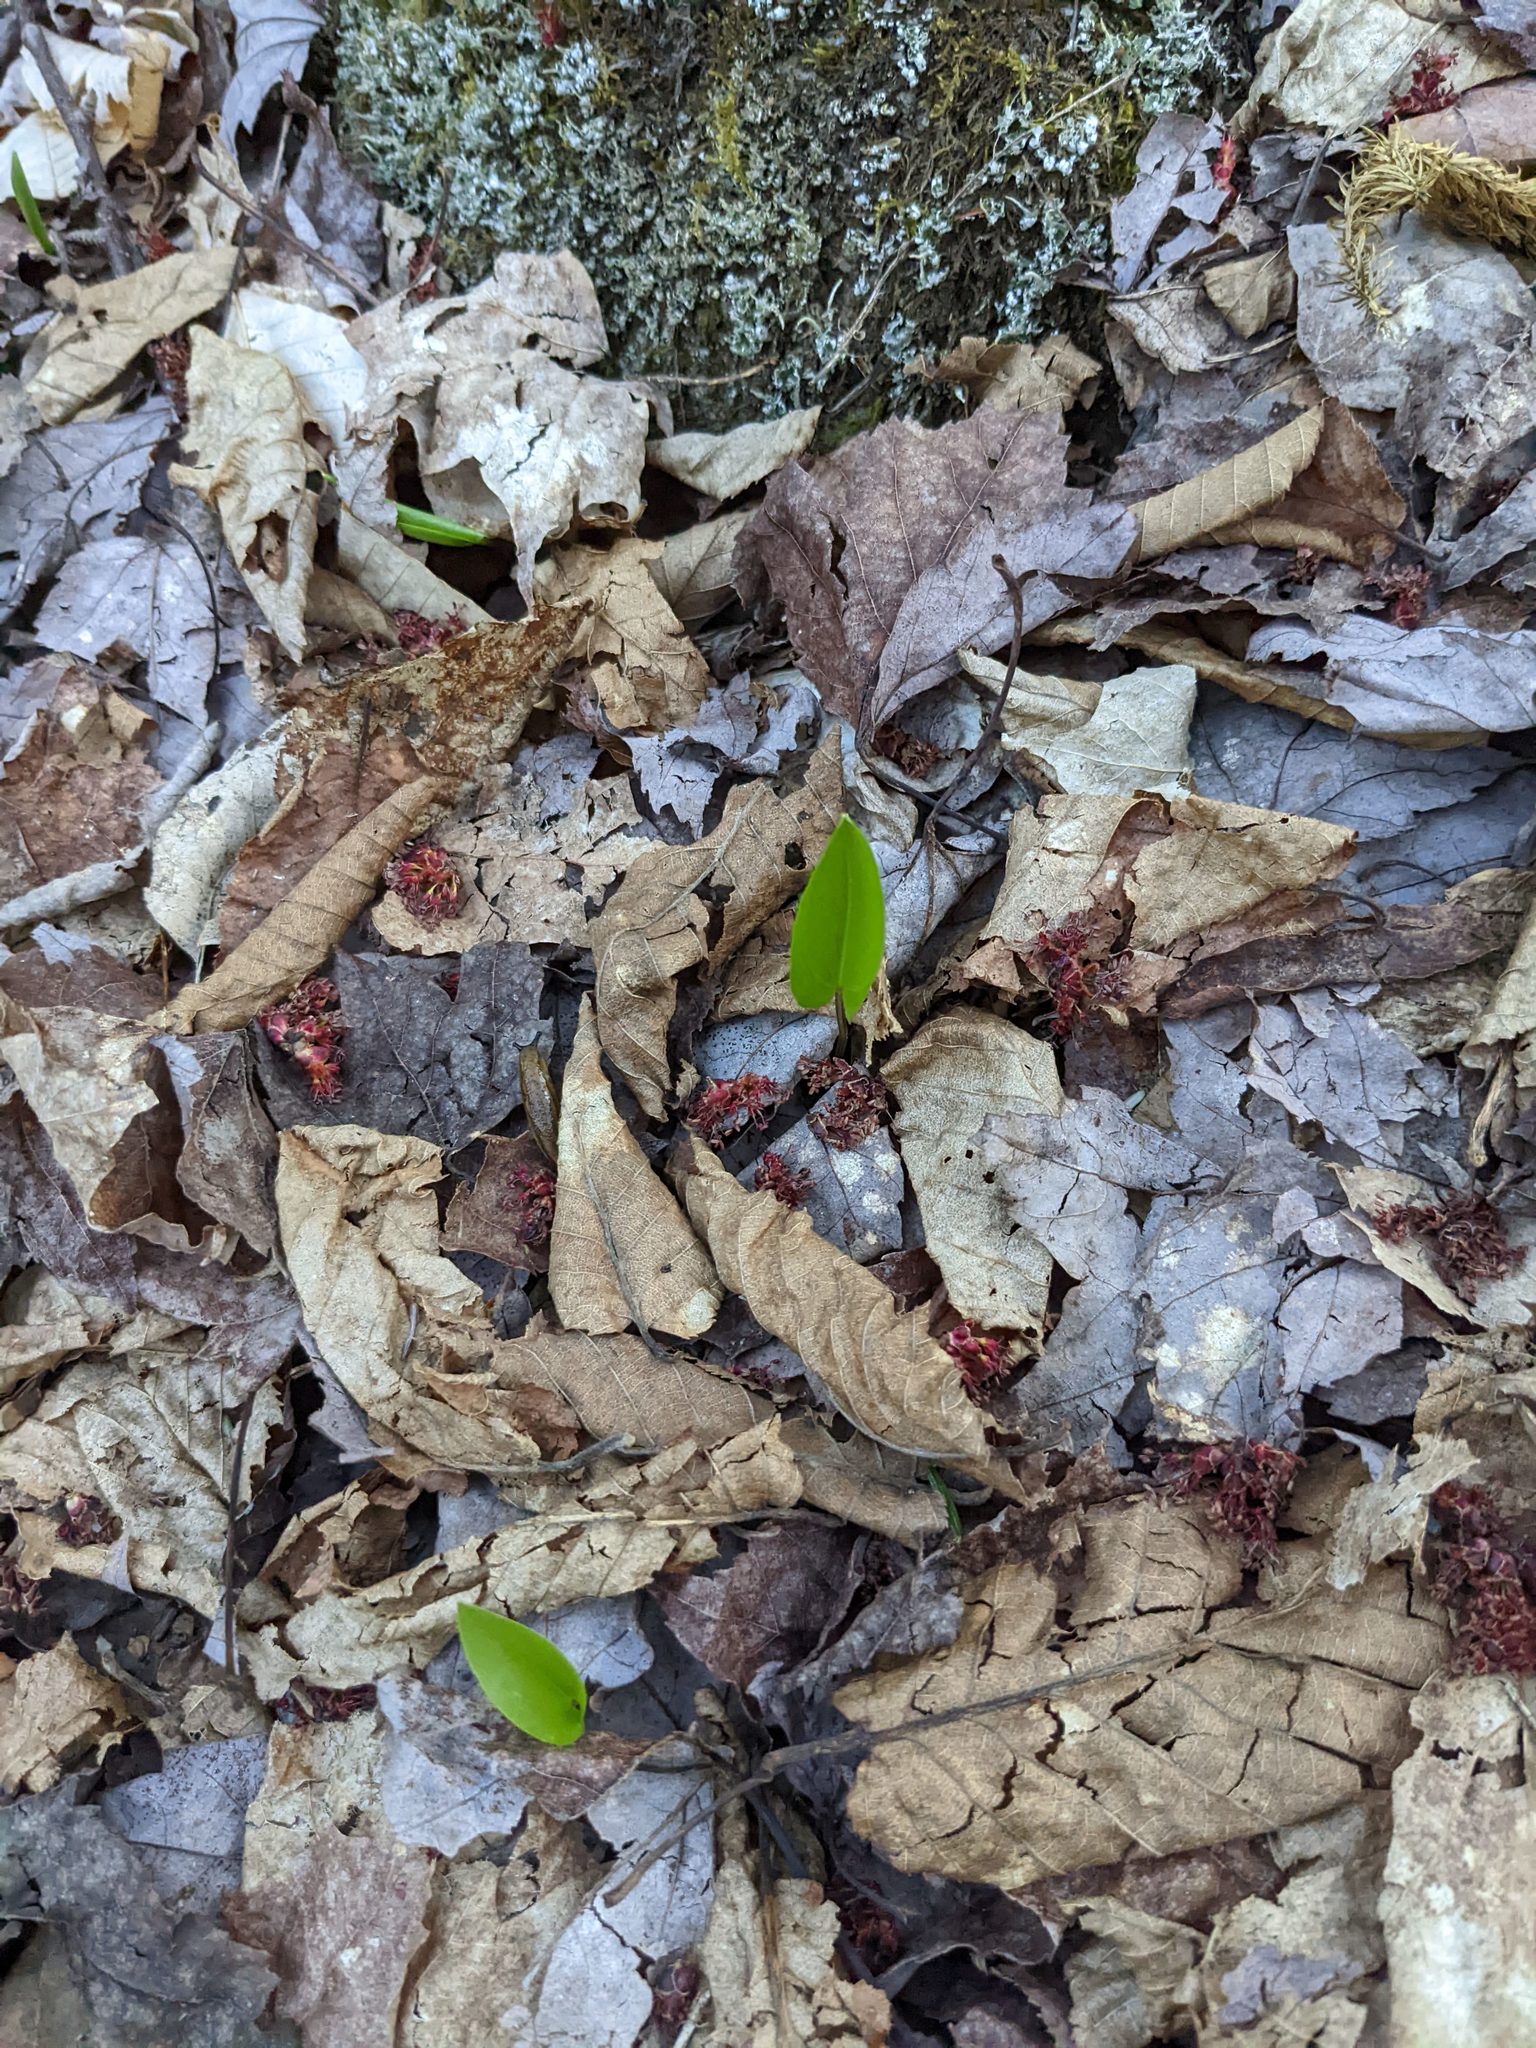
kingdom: Plantae
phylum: Tracheophyta
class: Liliopsida
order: Asparagales
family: Asparagaceae
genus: Maianthemum
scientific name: Maianthemum canadense
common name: False lily-of-the-valley
